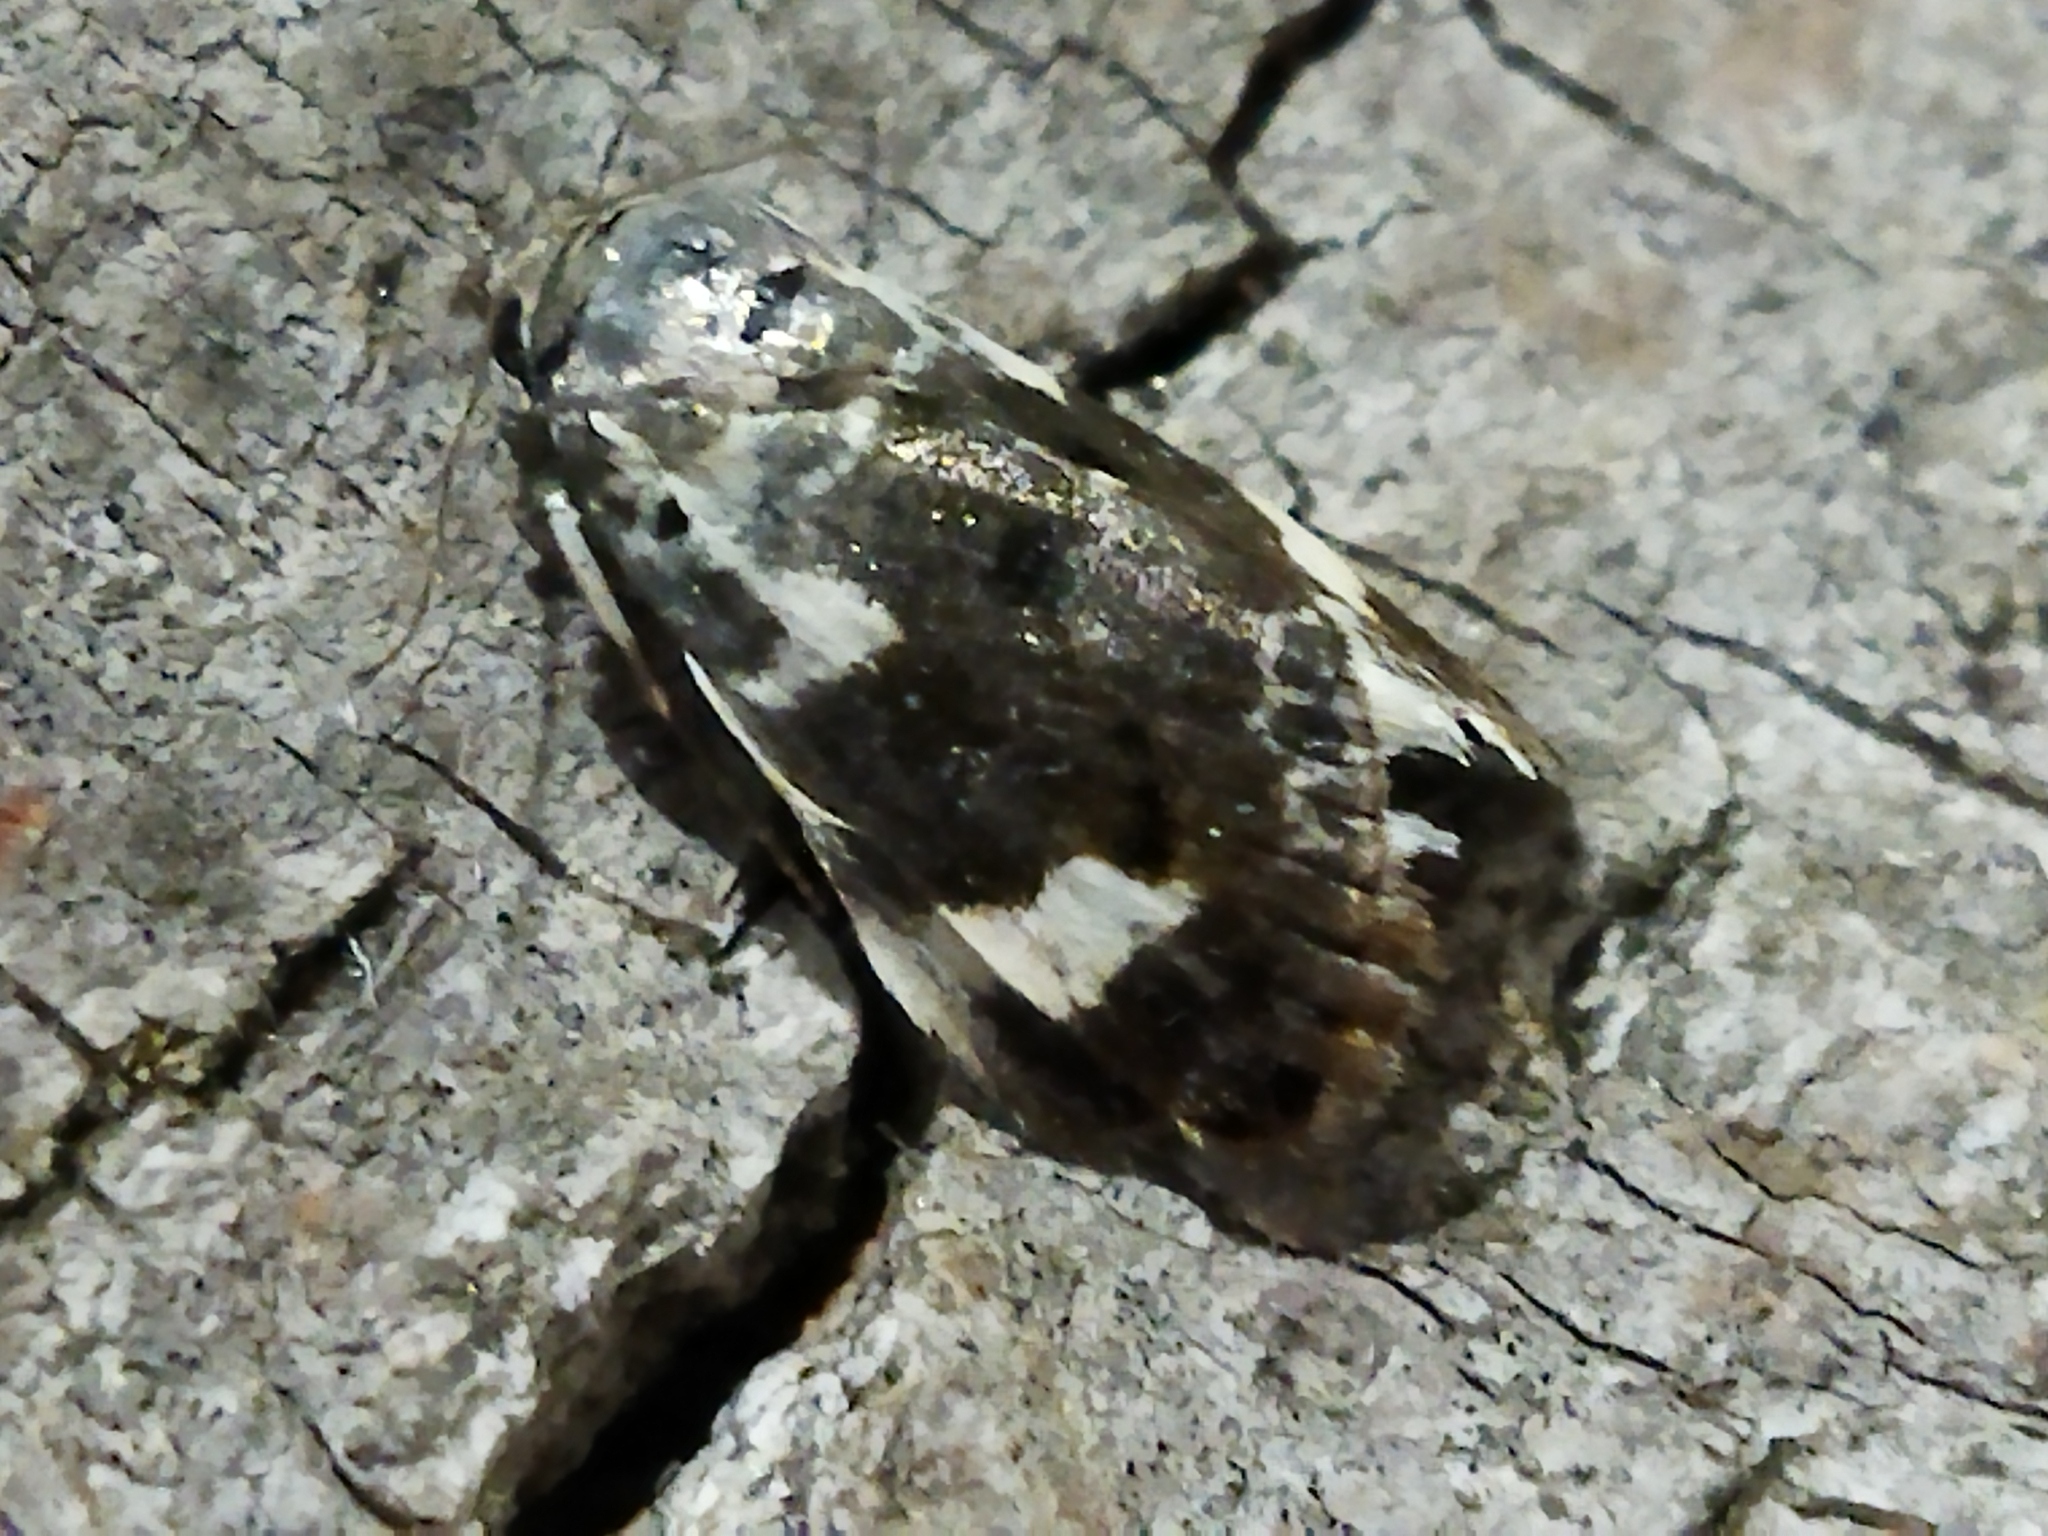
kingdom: Animalia
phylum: Arthropoda
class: Insecta
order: Lepidoptera
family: Noctuidae
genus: Acontia
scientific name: Acontia lucida
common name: Pale shoulder
